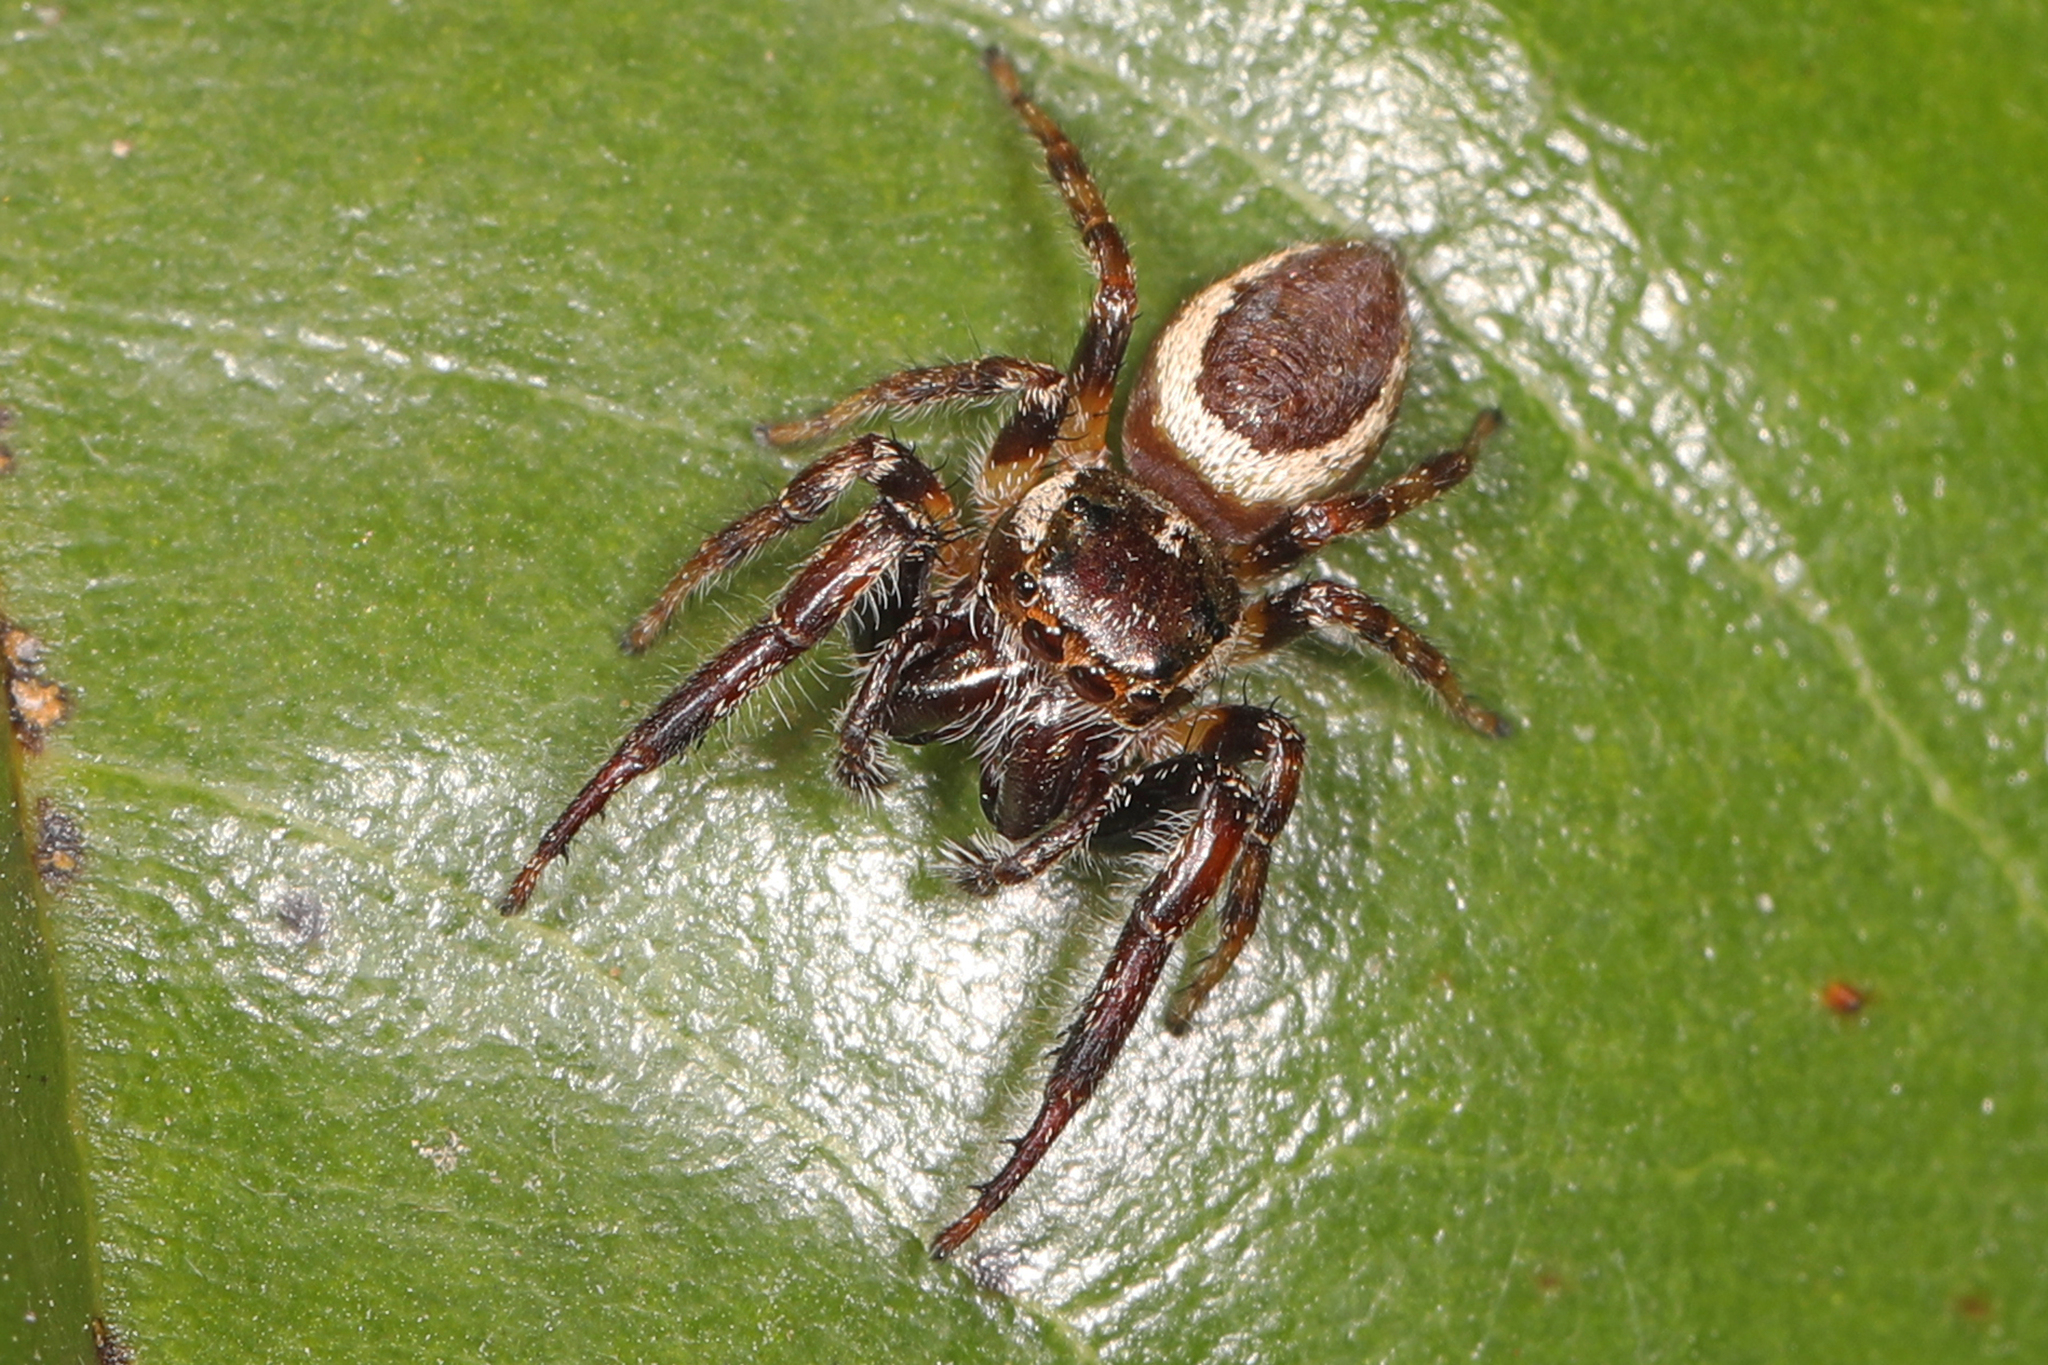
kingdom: Animalia
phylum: Arthropoda
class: Arachnida
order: Araneae
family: Salticidae
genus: Eris
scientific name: Eris militaris
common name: Bronze jumper
